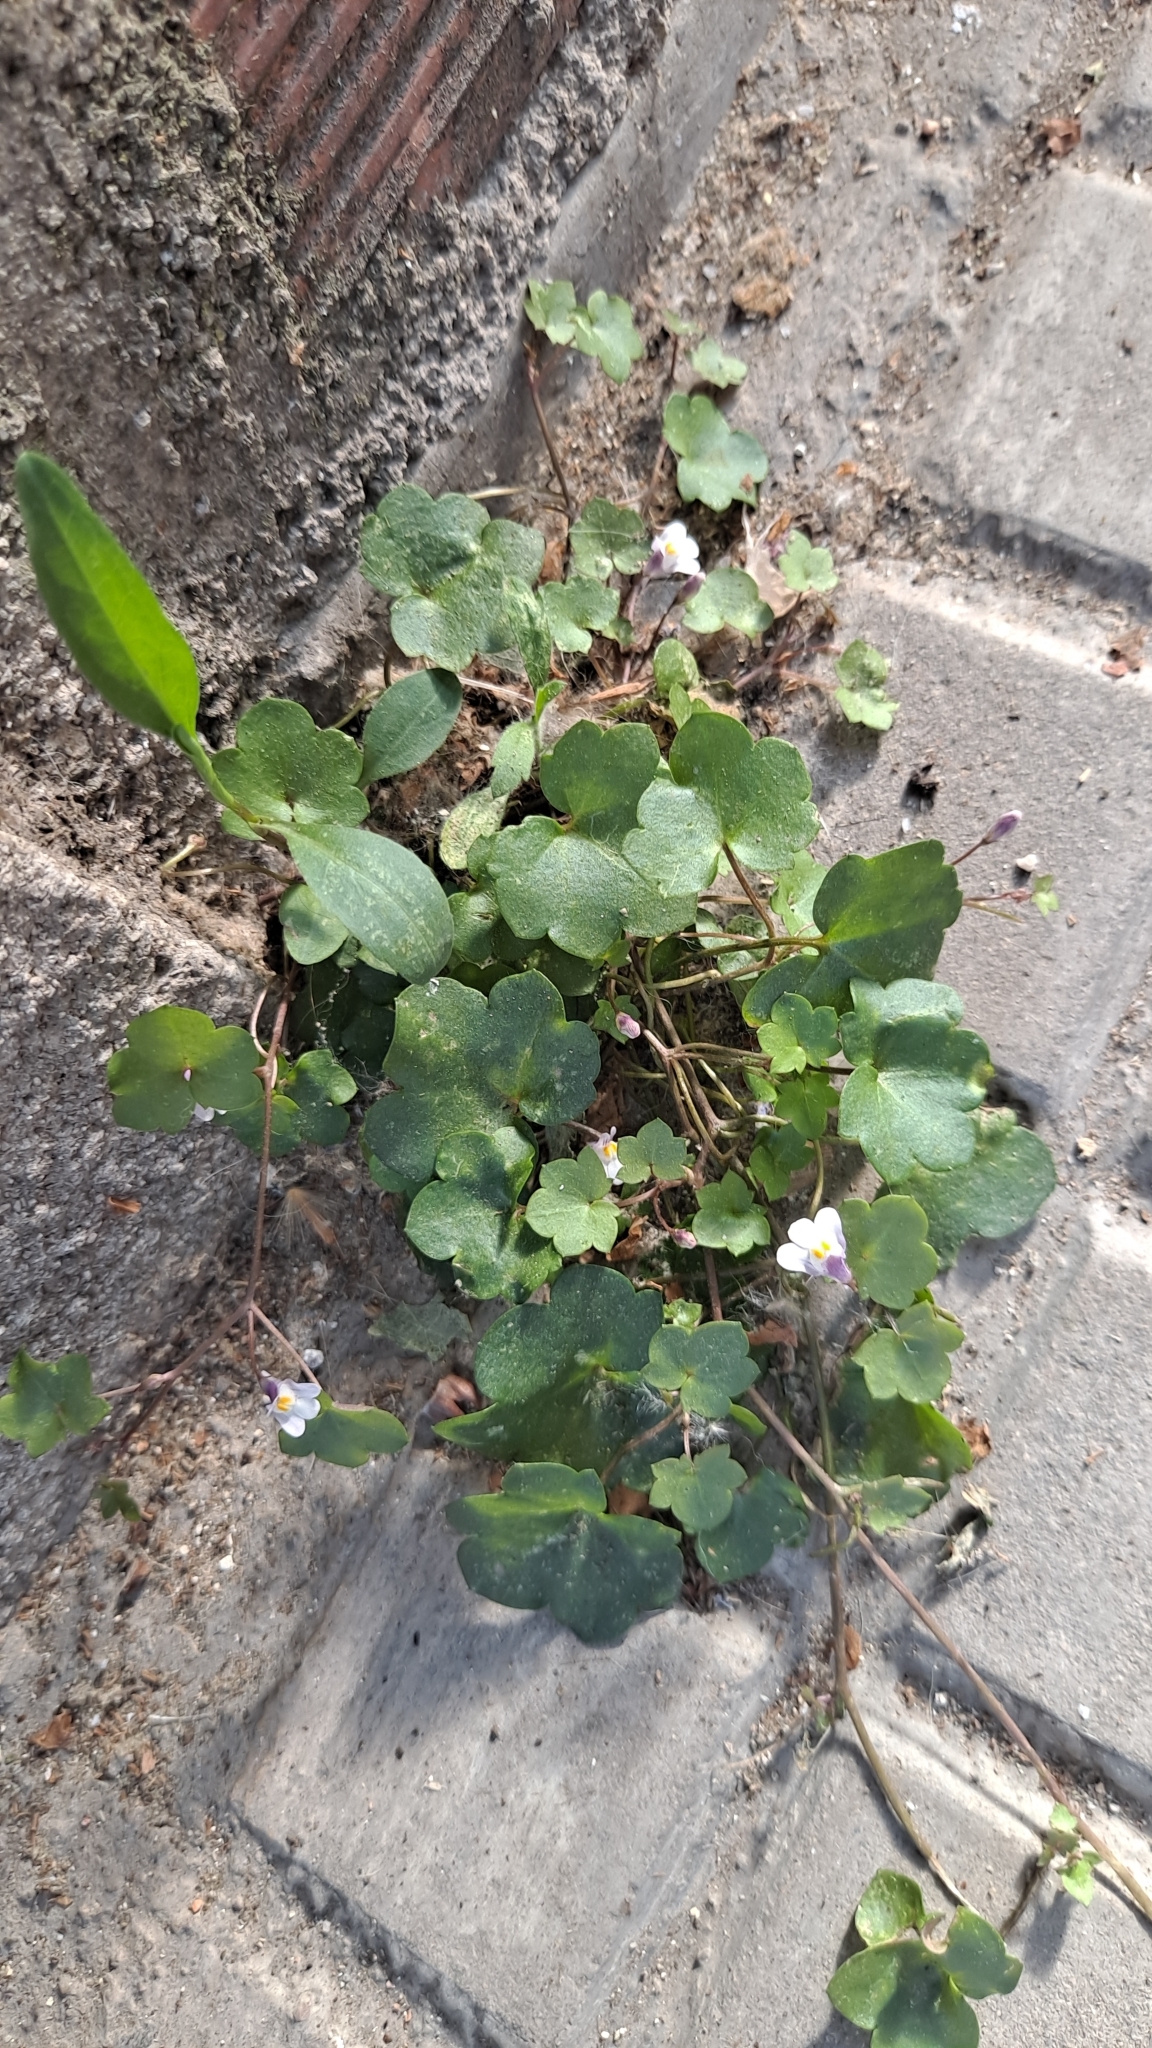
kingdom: Plantae
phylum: Tracheophyta
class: Magnoliopsida
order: Lamiales
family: Plantaginaceae
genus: Cymbalaria
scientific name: Cymbalaria muralis
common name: Ivy-leaved toadflax
